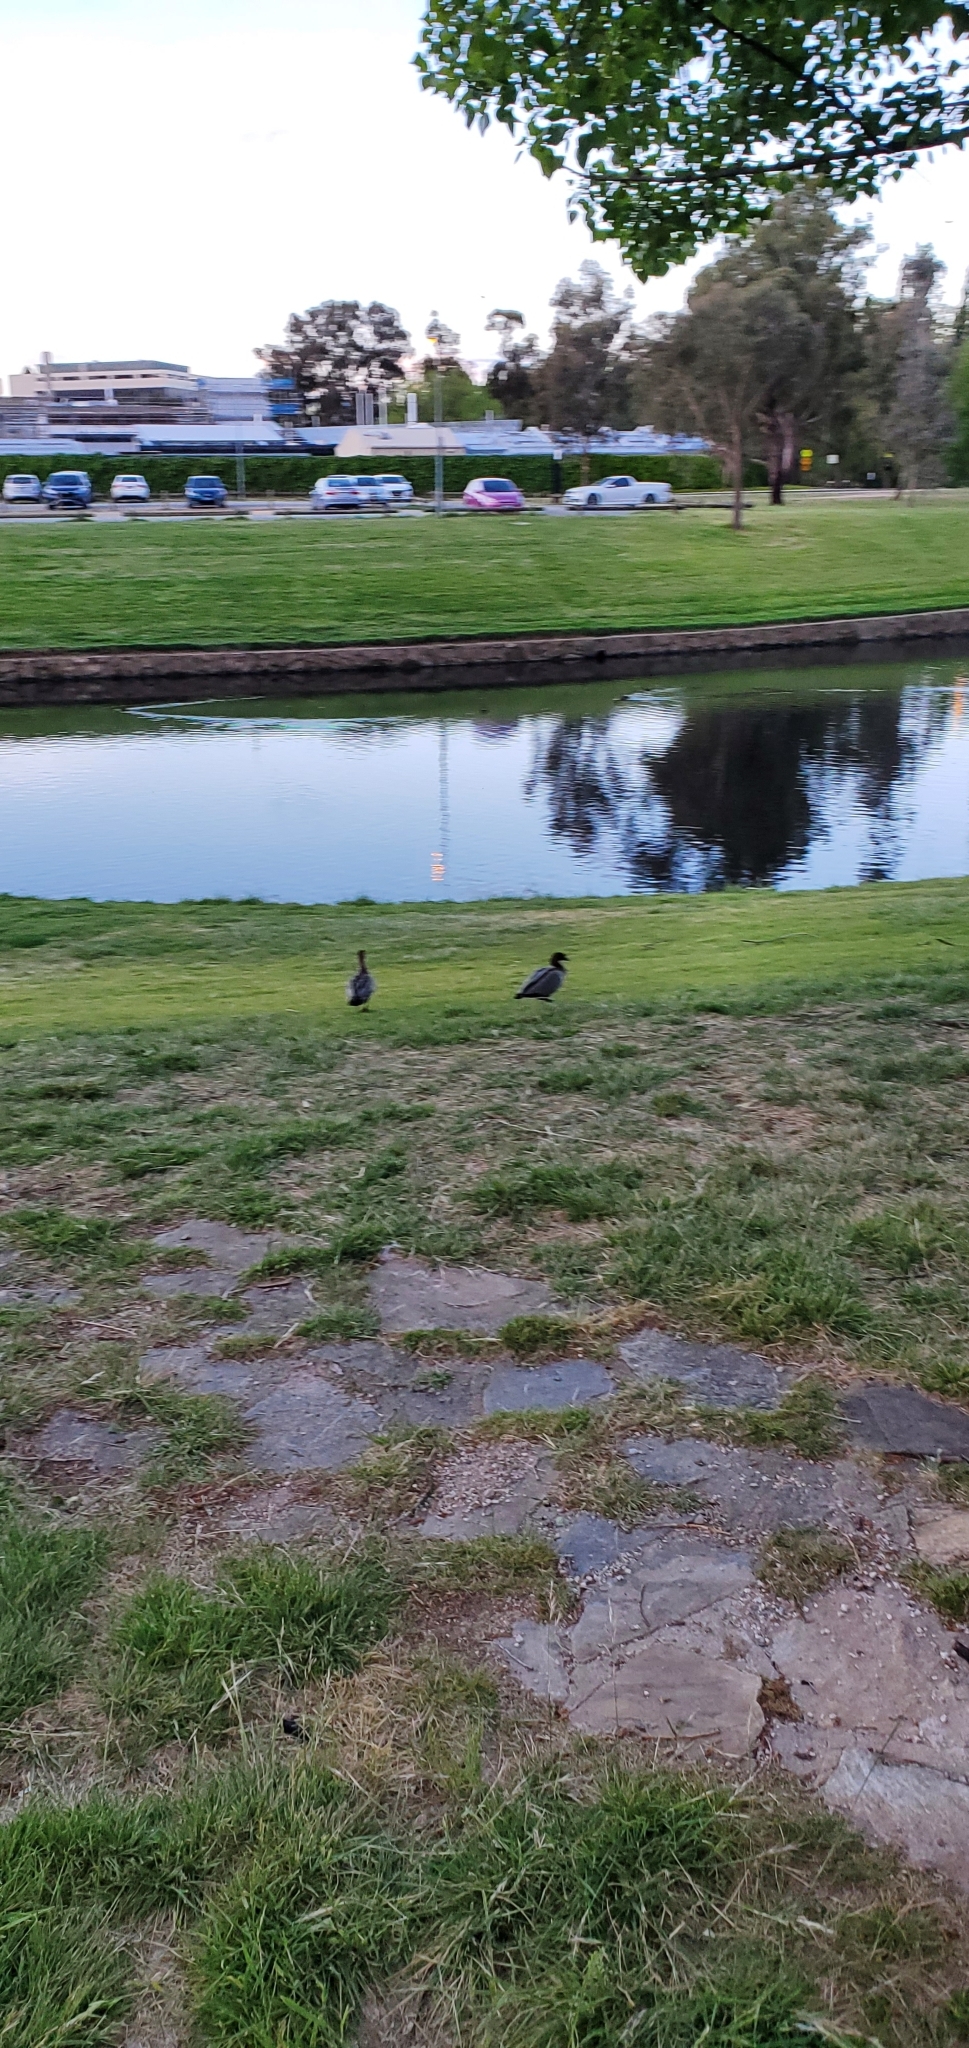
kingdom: Animalia
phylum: Chordata
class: Aves
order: Anseriformes
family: Anatidae
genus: Chenonetta
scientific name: Chenonetta jubata
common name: Maned duck
